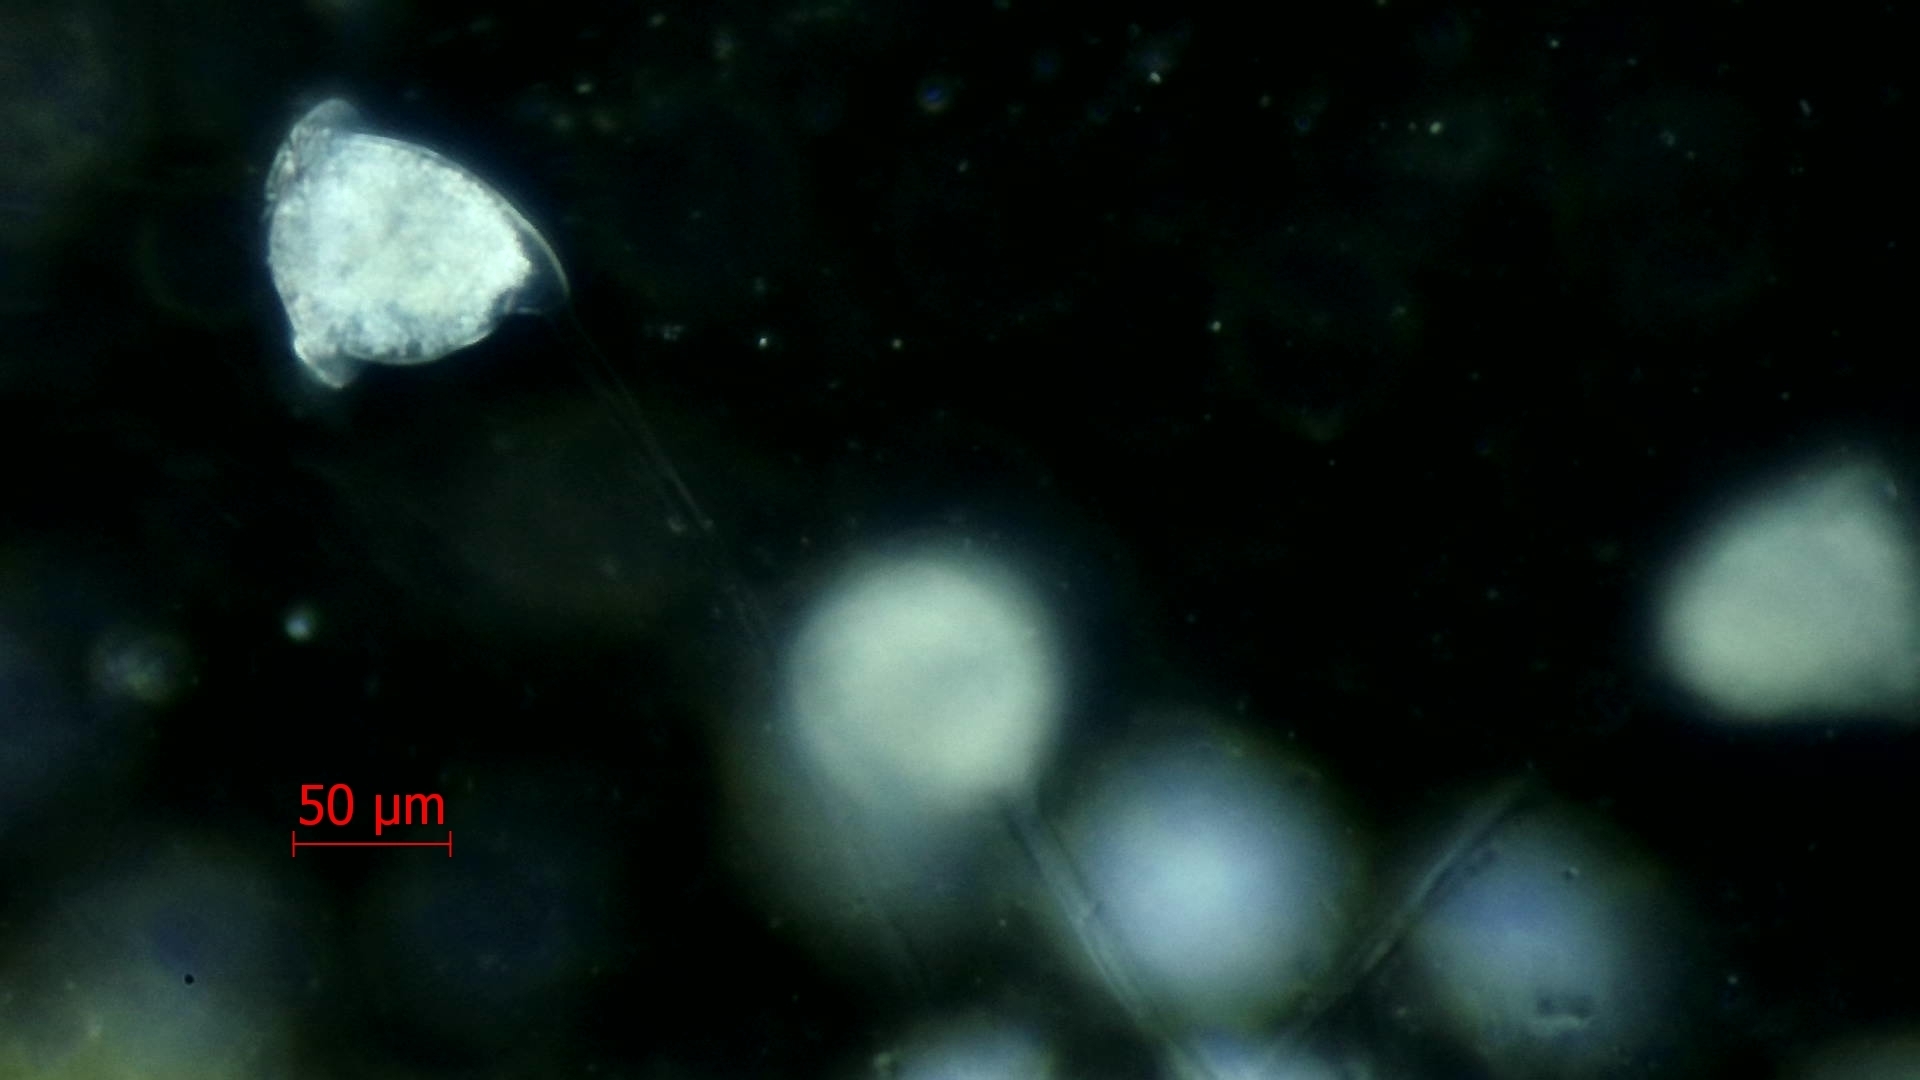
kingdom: Chromista
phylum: Ciliophora
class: Oligohymenophorea
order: Peritrichida
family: Vorticellidae
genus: Vorticella
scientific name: Vorticella campanulla
